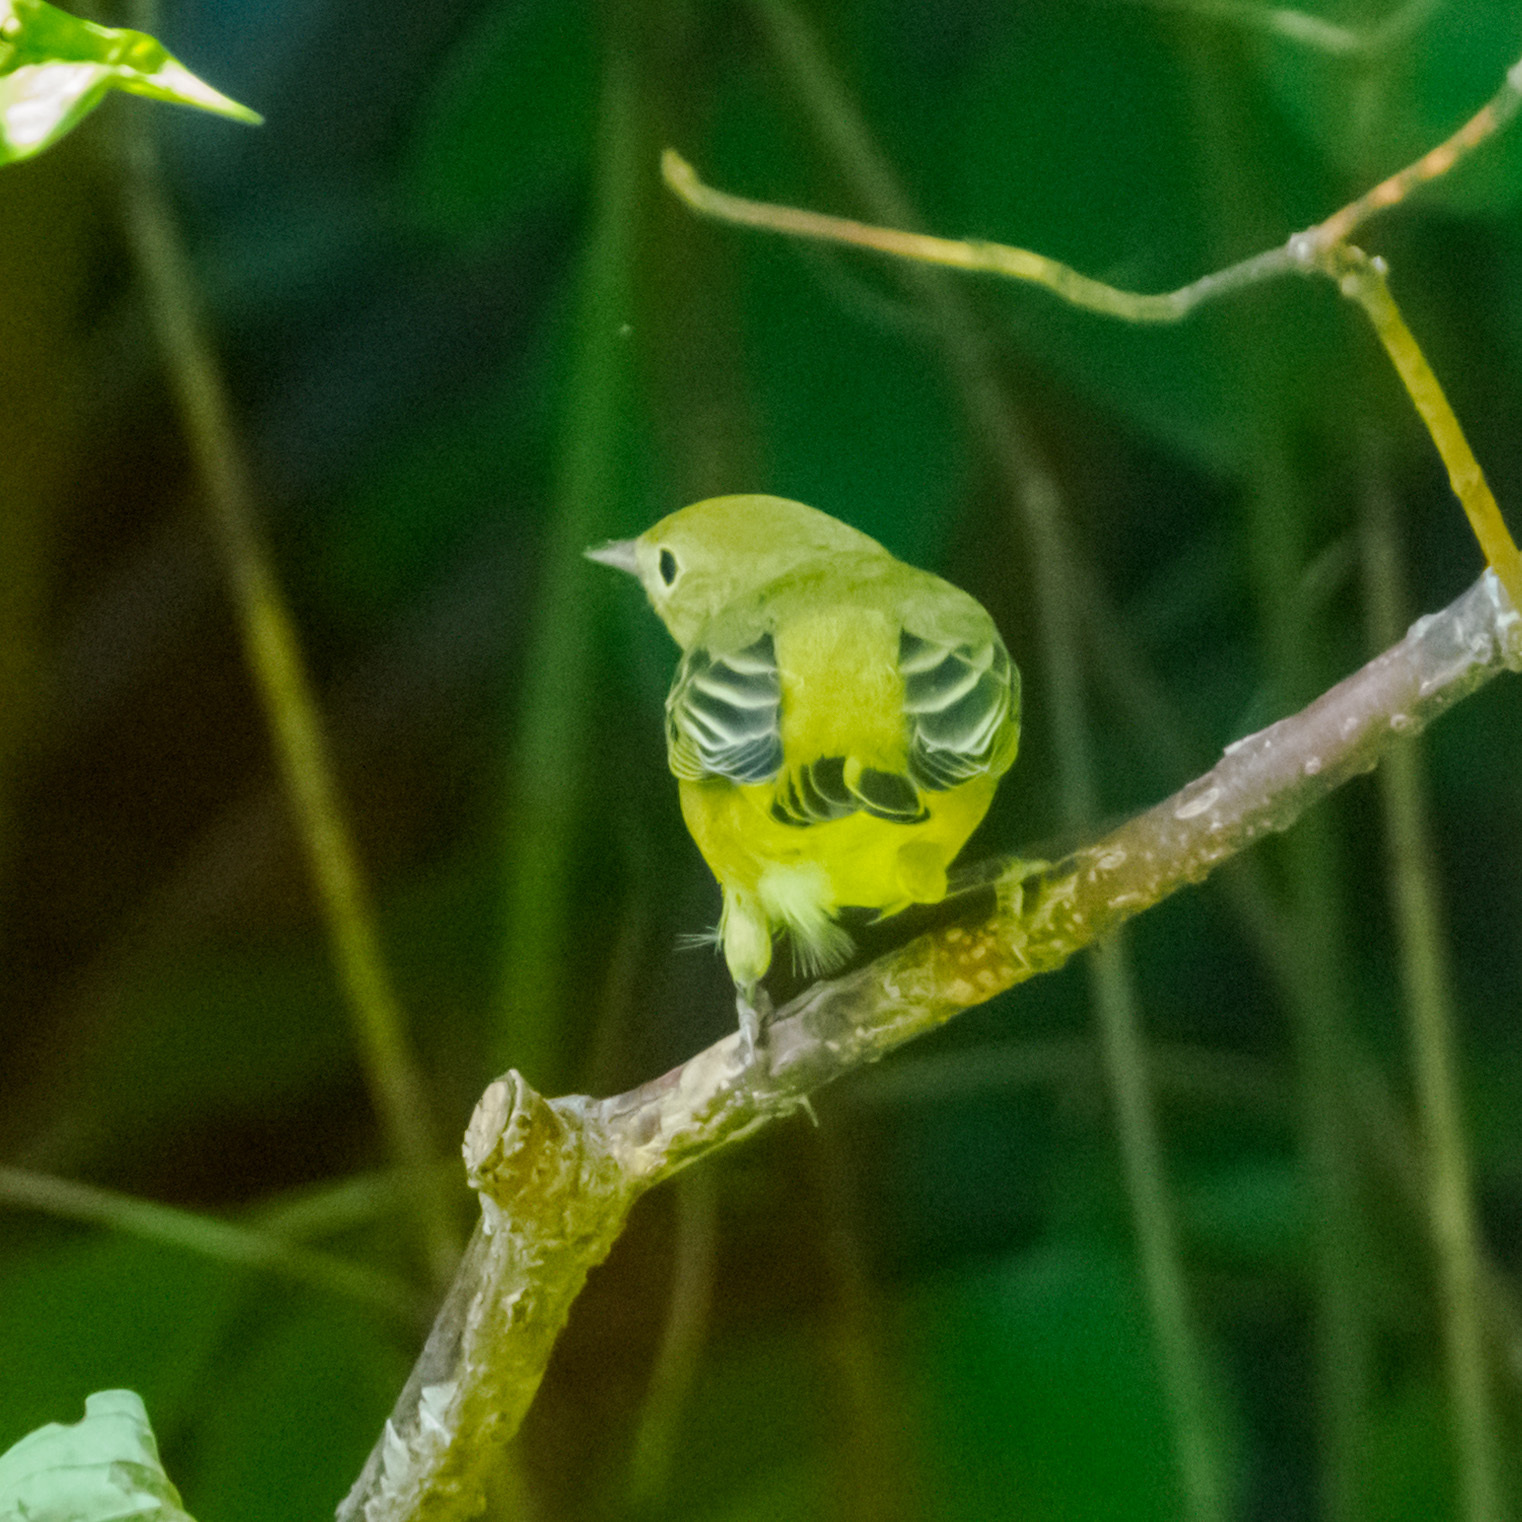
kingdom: Animalia
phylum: Chordata
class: Aves
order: Passeriformes
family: Parulidae
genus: Setophaga
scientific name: Setophaga petechia
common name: Yellow warbler
